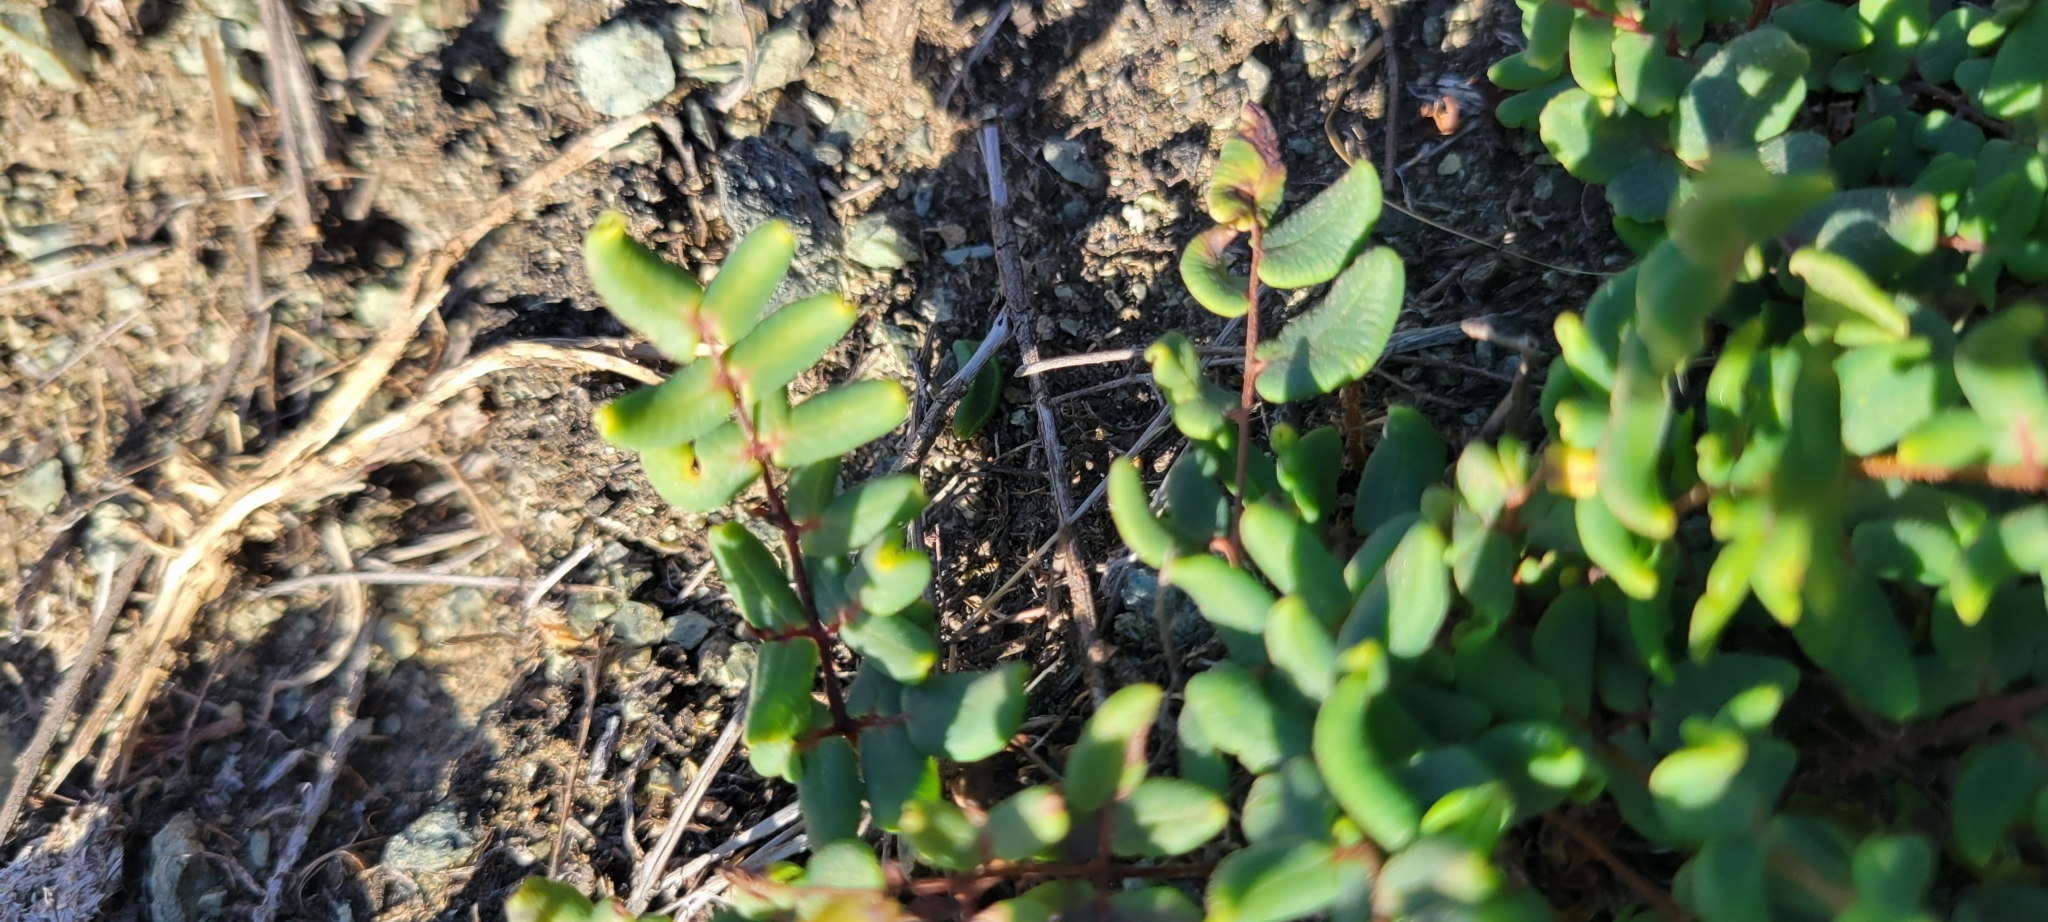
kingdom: Plantae
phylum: Tracheophyta
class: Polypodiopsida
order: Polypodiales
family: Pteridaceae
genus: Pellaea
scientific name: Pellaea andromedifolia
